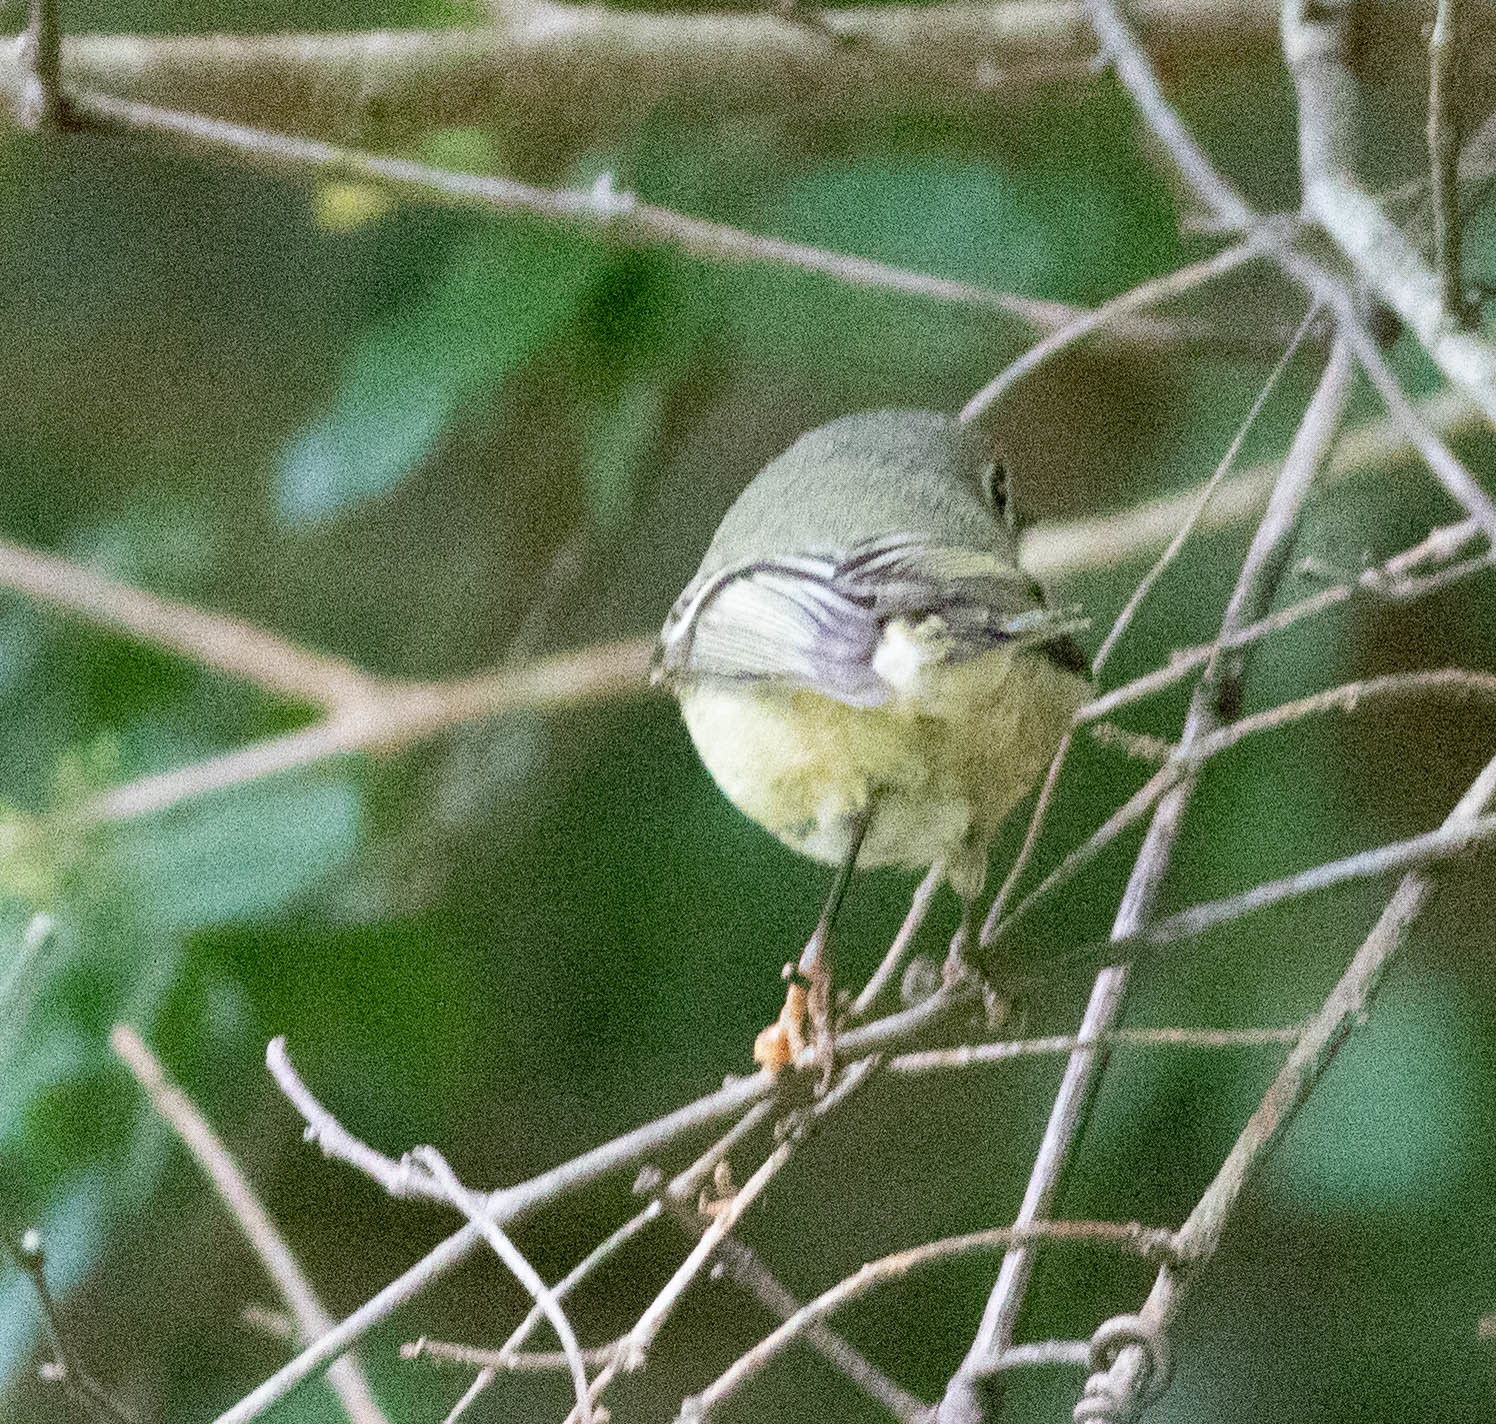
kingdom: Animalia
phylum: Chordata
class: Aves
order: Passeriformes
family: Regulidae
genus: Regulus
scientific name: Regulus calendula
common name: Ruby-crowned kinglet
